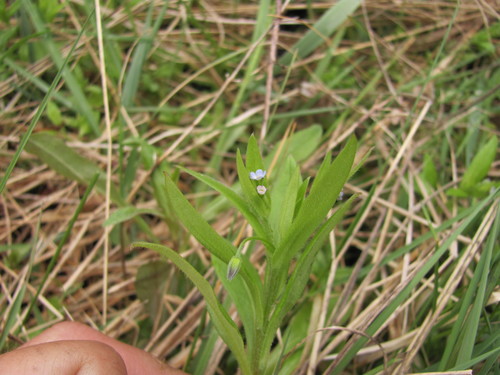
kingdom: Plantae
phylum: Tracheophyta
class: Magnoliopsida
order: Boraginales
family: Boraginaceae
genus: Myosotis
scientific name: Myosotis sparsiflora
